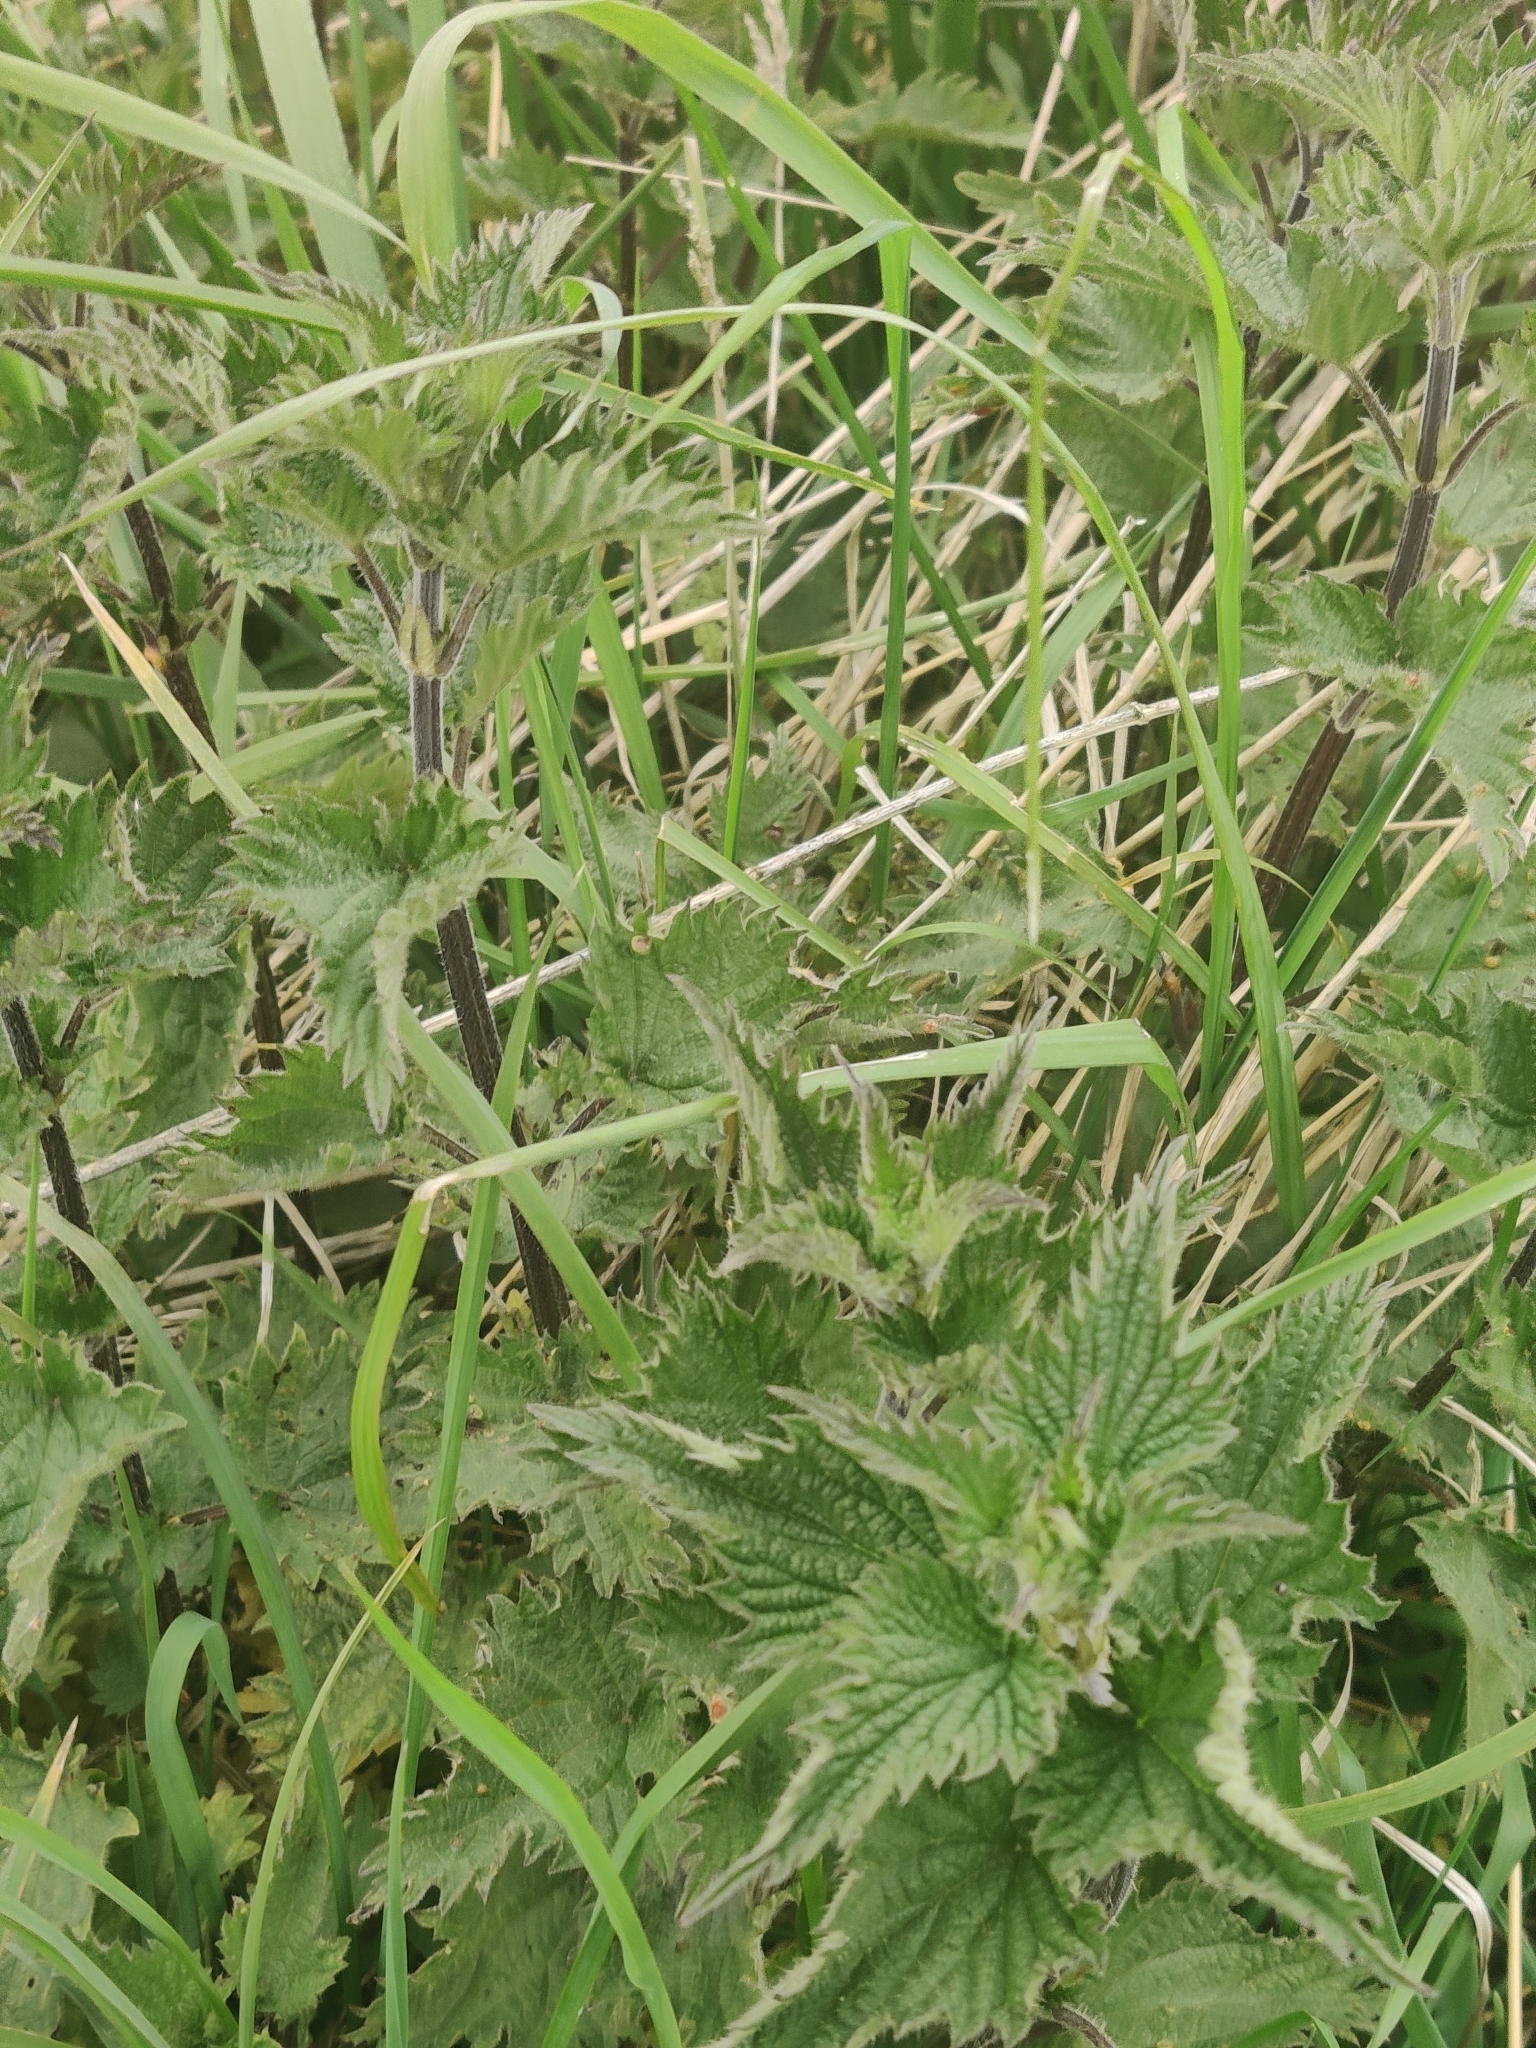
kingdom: Plantae
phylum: Tracheophyta
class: Magnoliopsida
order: Rosales
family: Urticaceae
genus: Urtica
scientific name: Urtica dioica
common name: Common nettle
